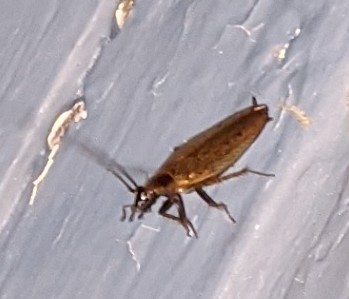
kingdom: Animalia
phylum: Arthropoda
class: Insecta
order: Blattodea
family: Ectobiidae
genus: Ectobius
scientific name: Ectobius lapponicus
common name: Dusky cockroach
